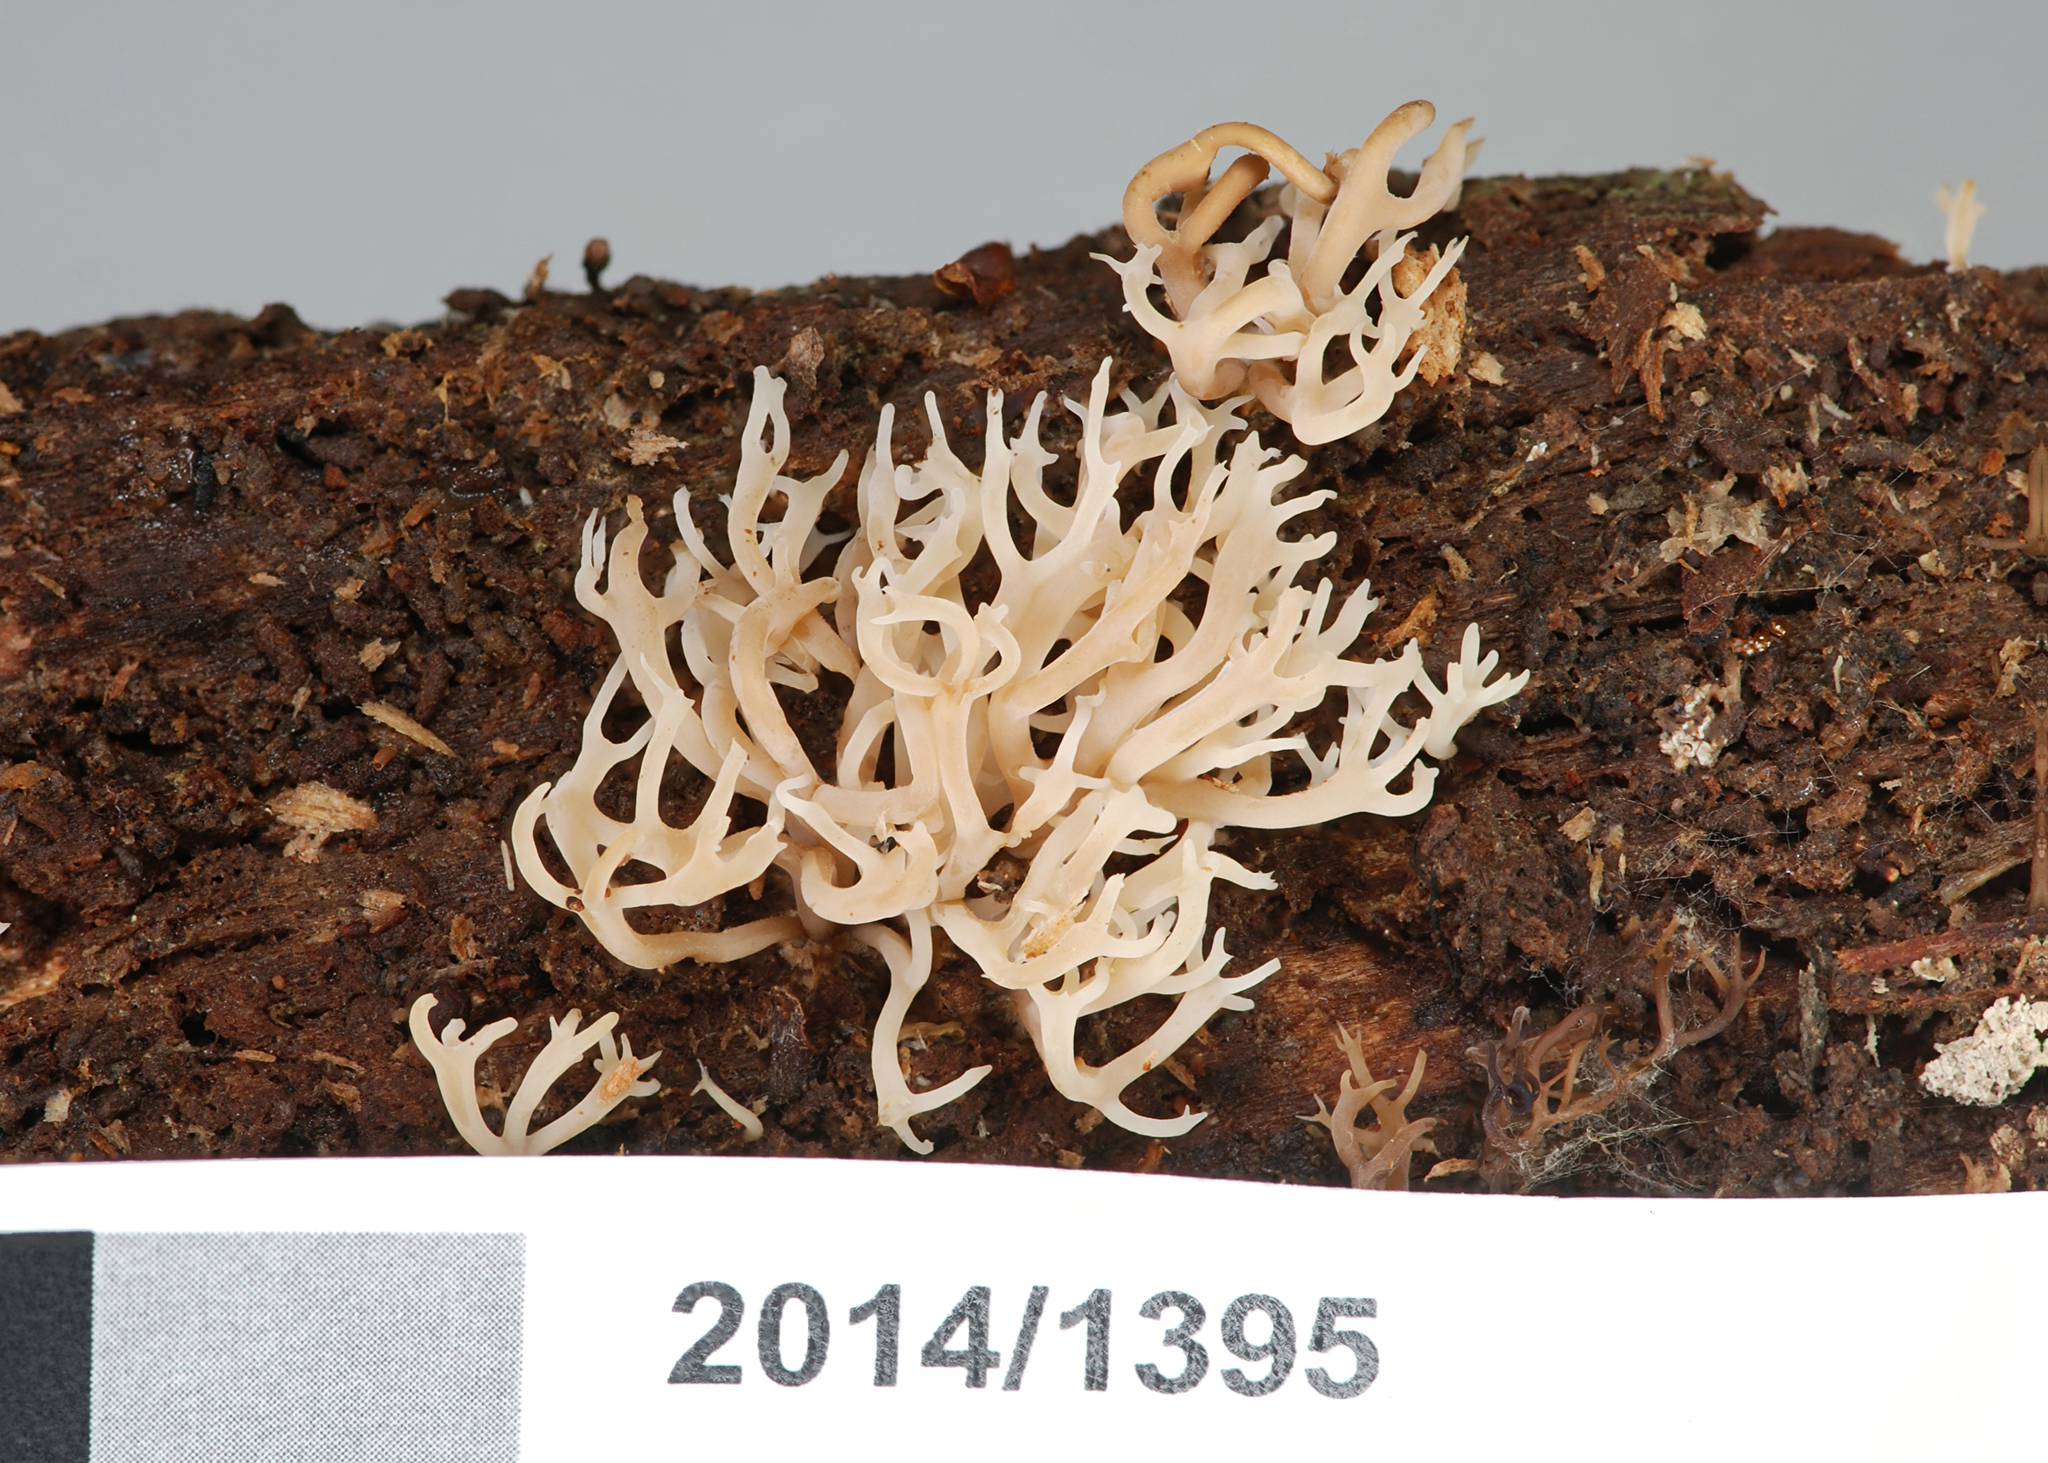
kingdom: Fungi
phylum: Basidiomycota
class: Agaricomycetes
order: Russulales
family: Auriscalpiaceae
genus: Artomyces
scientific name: Artomyces candelabrus
